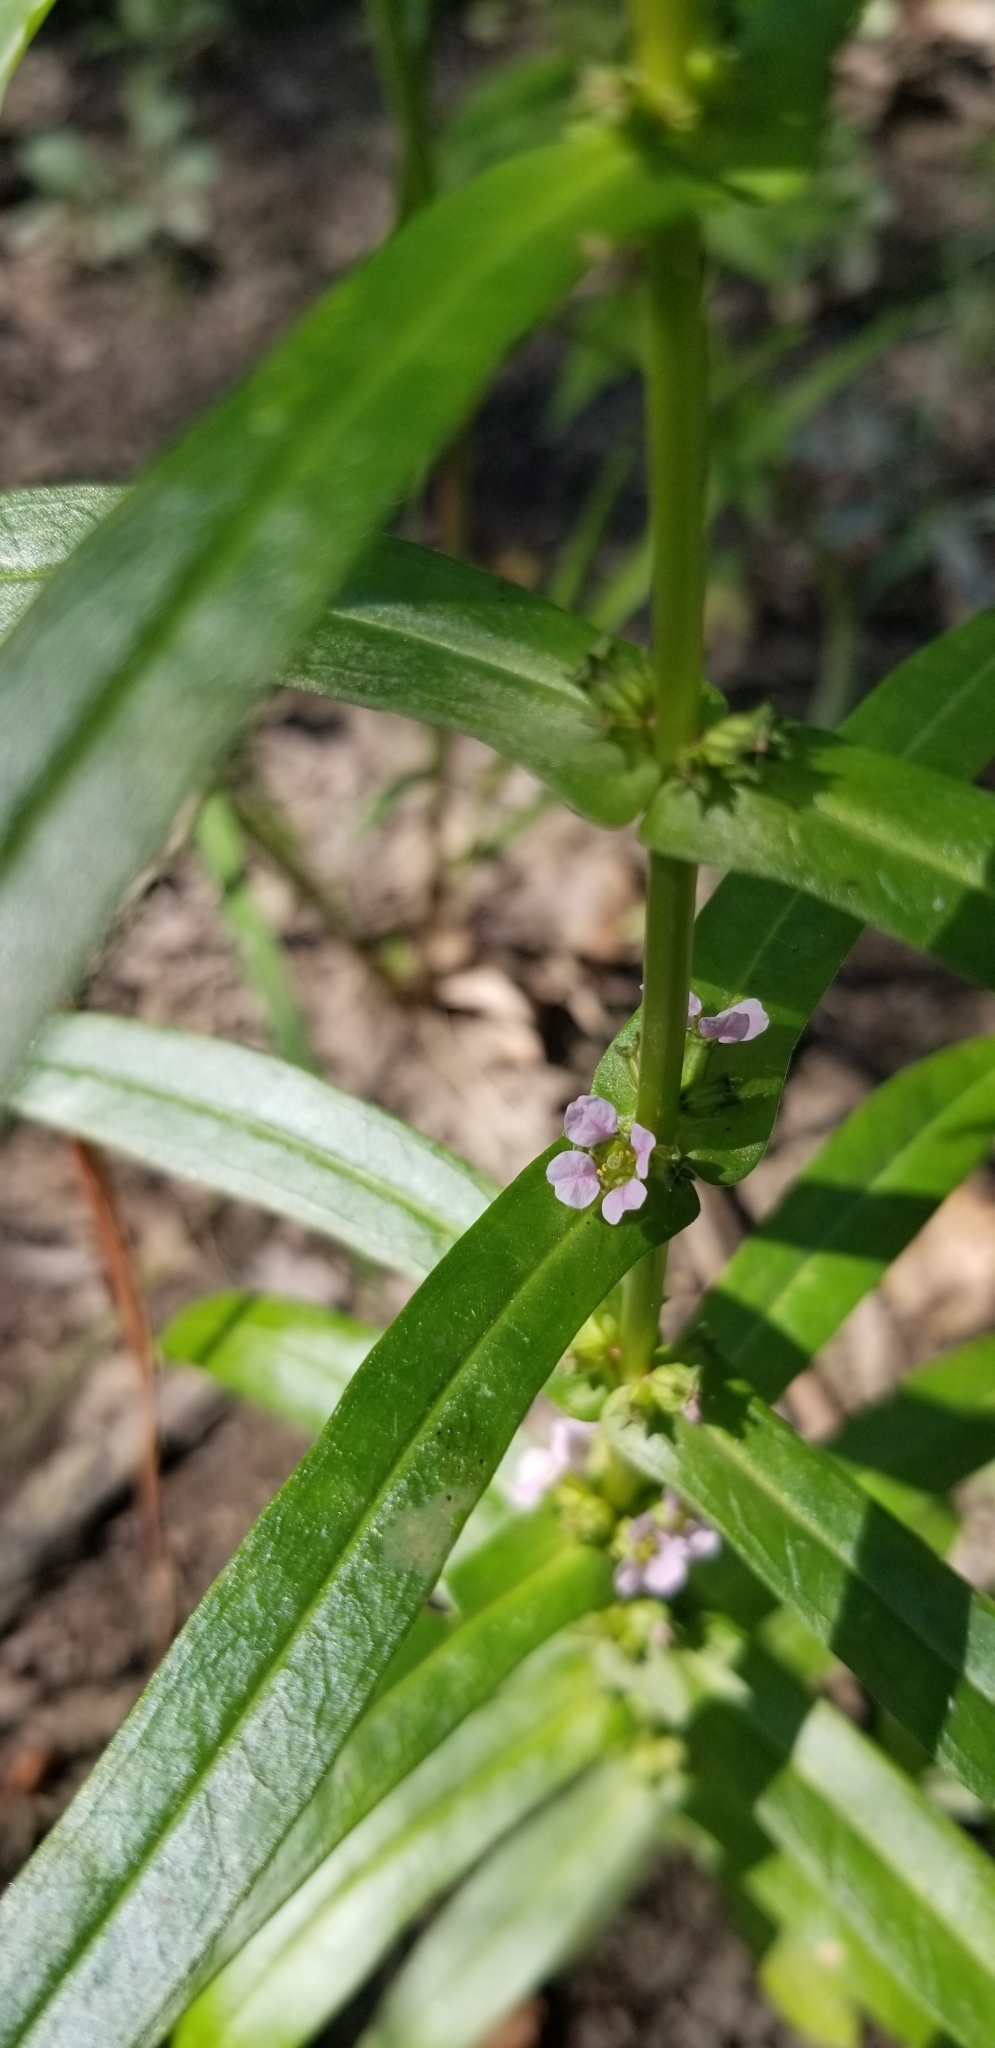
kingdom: Plantae
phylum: Tracheophyta
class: Magnoliopsida
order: Myrtales
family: Lythraceae
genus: Ammannia
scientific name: Ammannia robusta
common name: Grand ammannia
